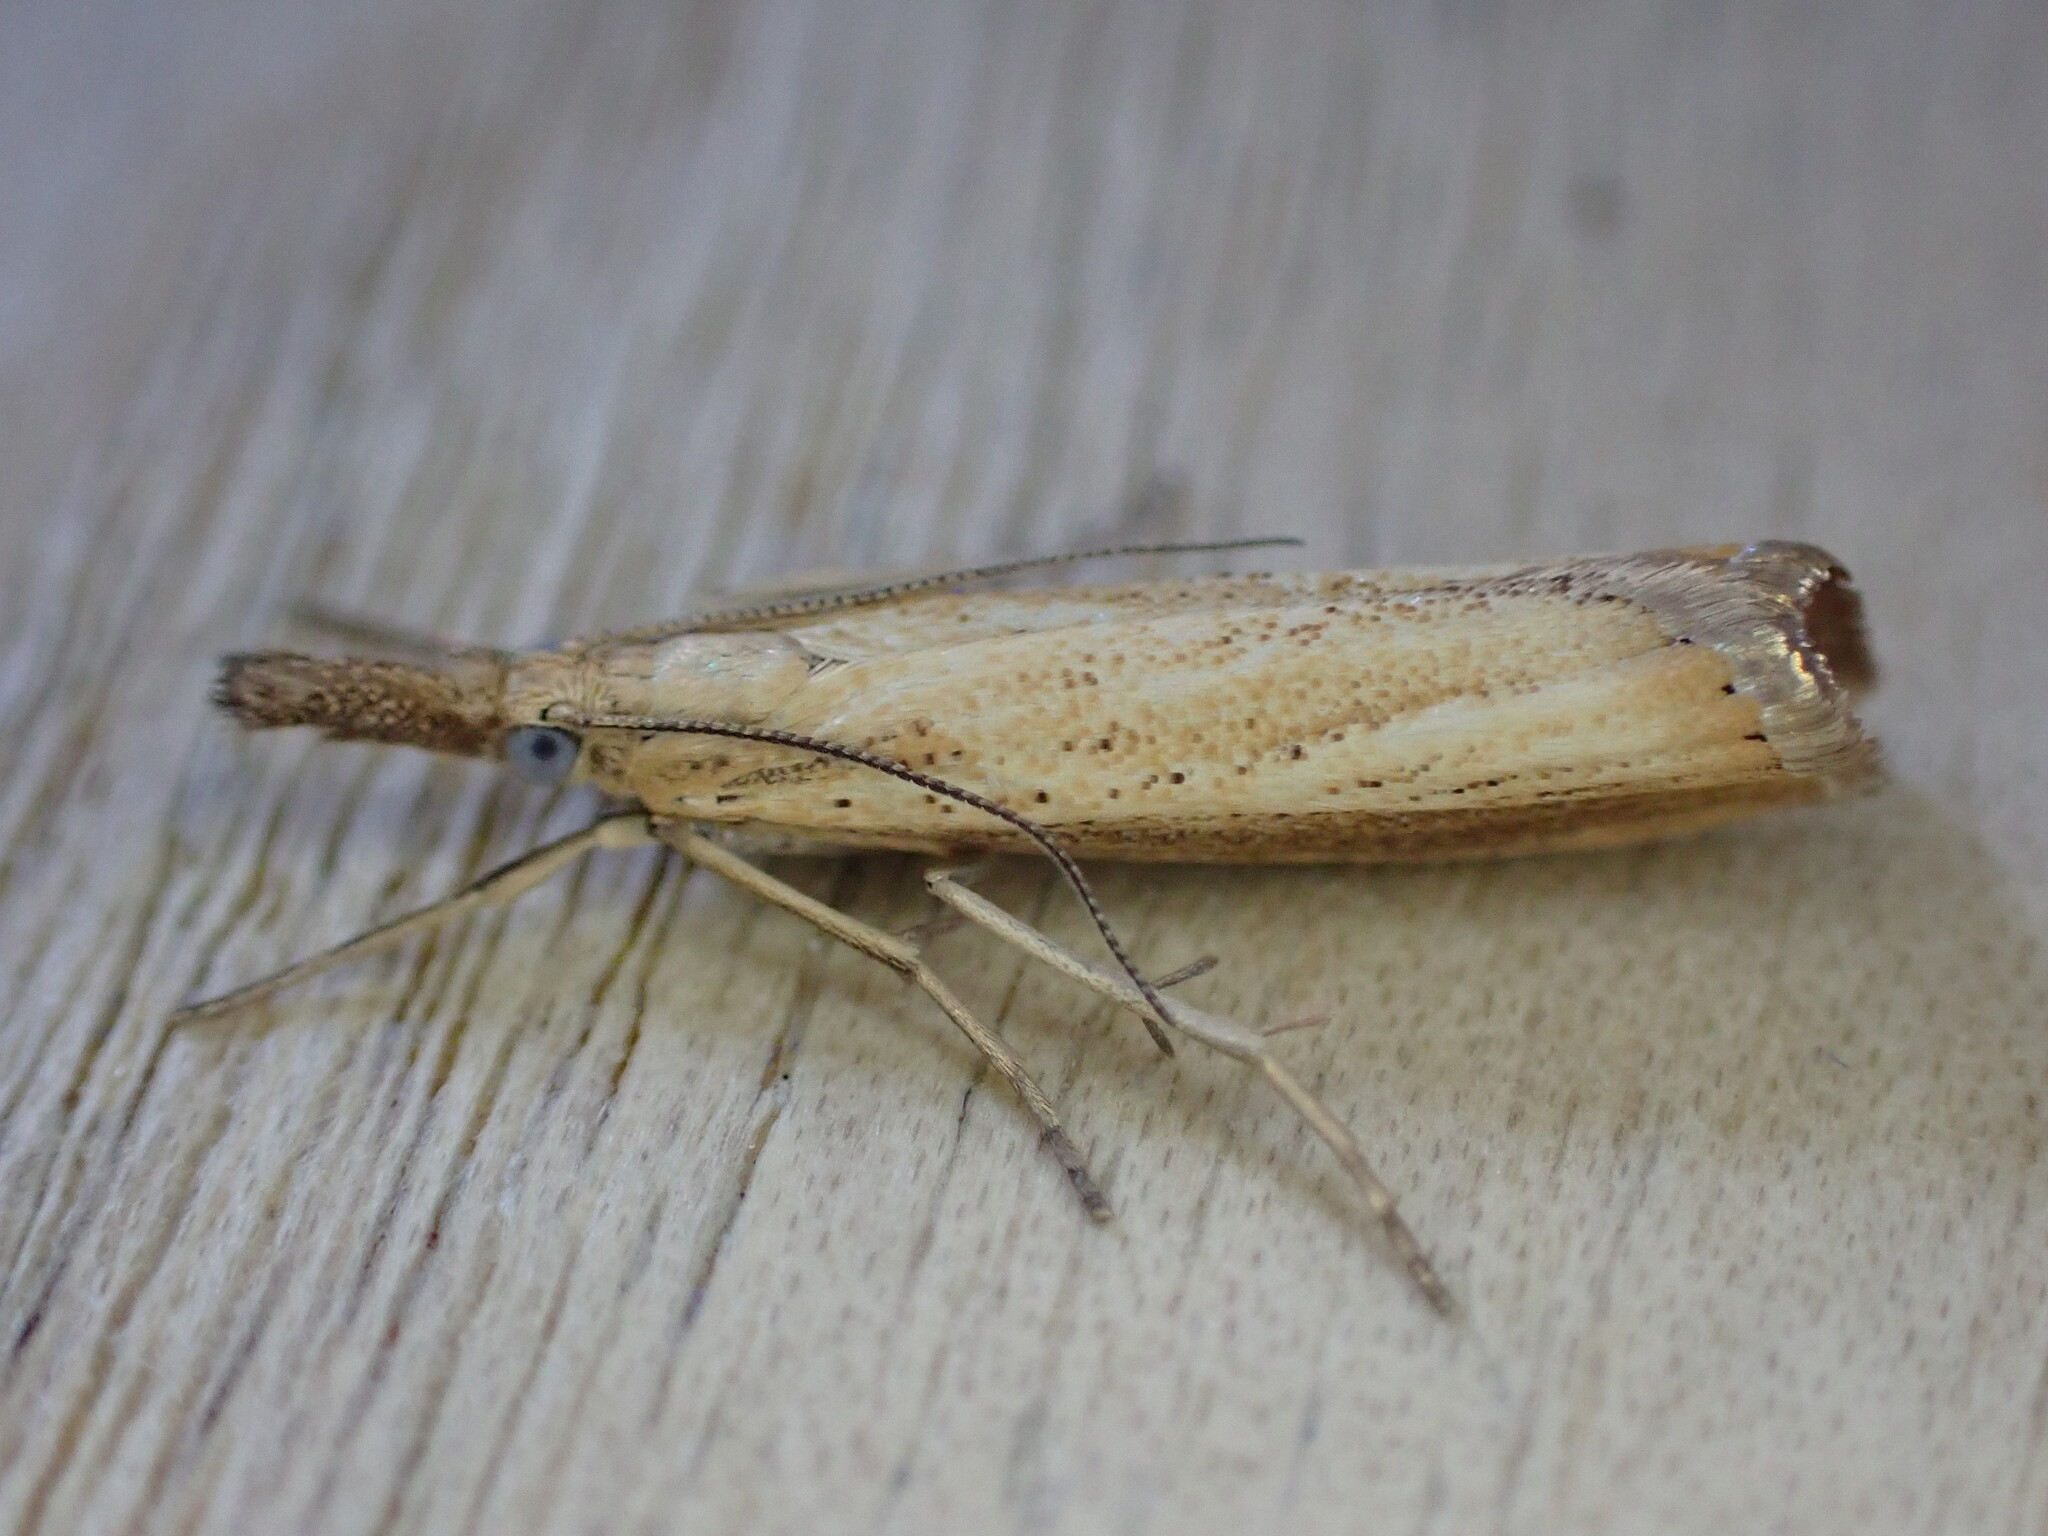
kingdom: Animalia
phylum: Arthropoda
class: Insecta
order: Lepidoptera
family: Crambidae
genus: Agriphila
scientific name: Agriphila straminella
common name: Straw grass-veneer
